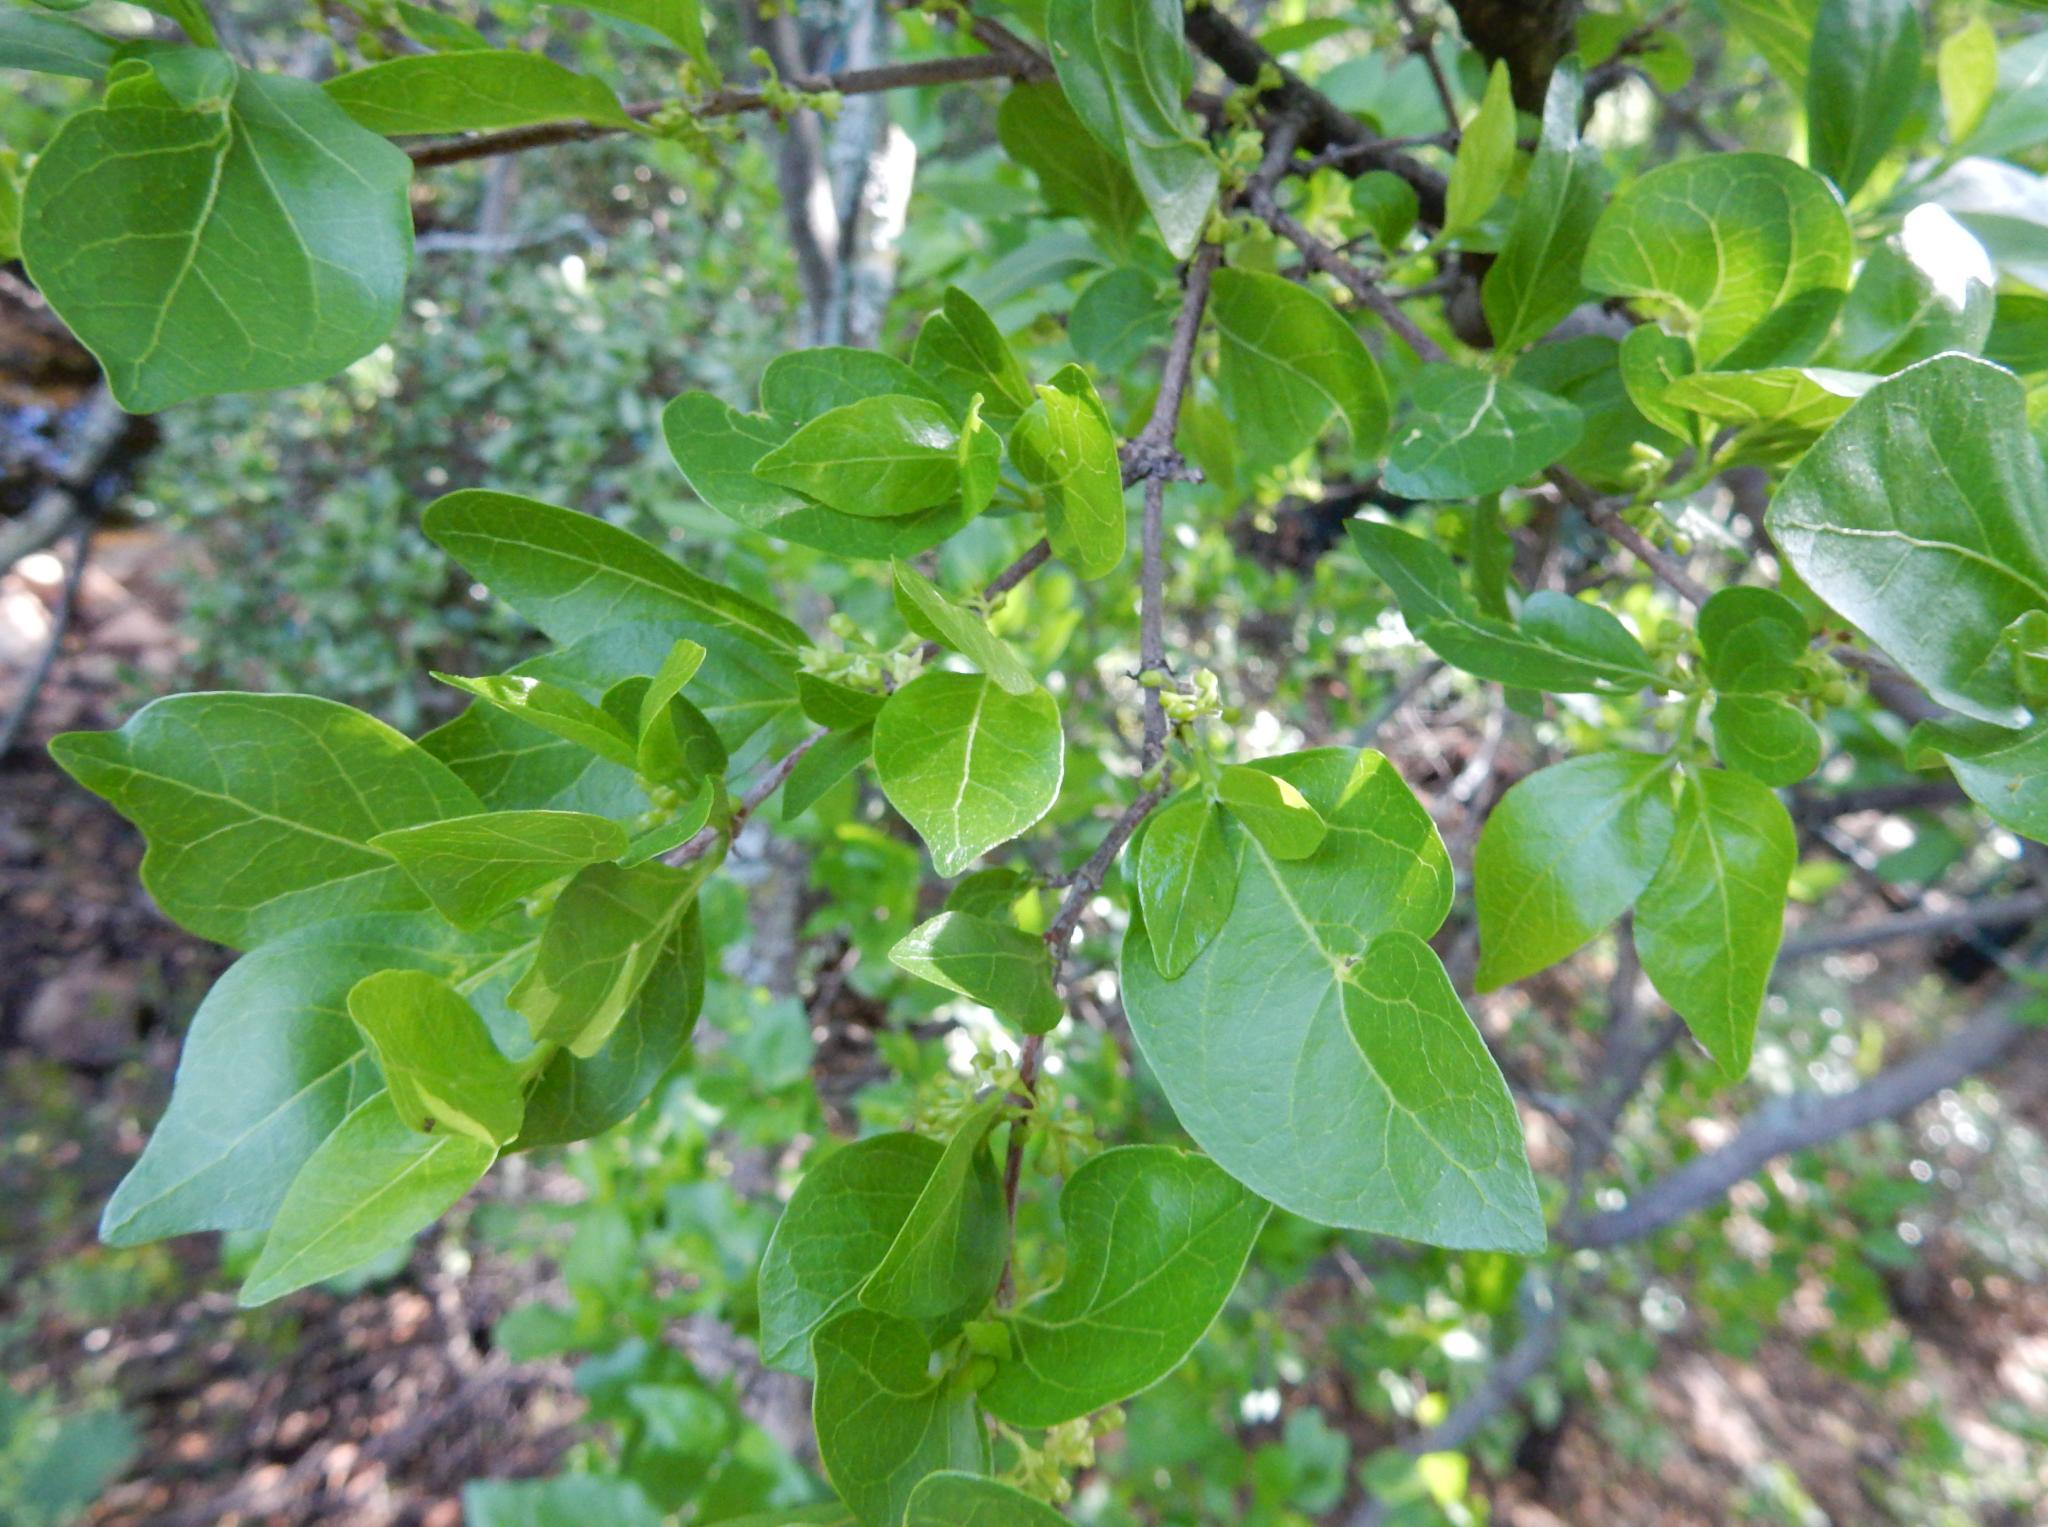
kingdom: Plantae
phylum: Tracheophyta
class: Magnoliopsida
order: Gentianales
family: Rubiaceae
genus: Afrocanthium
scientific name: Afrocanthium mundianum
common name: Rock-alder
